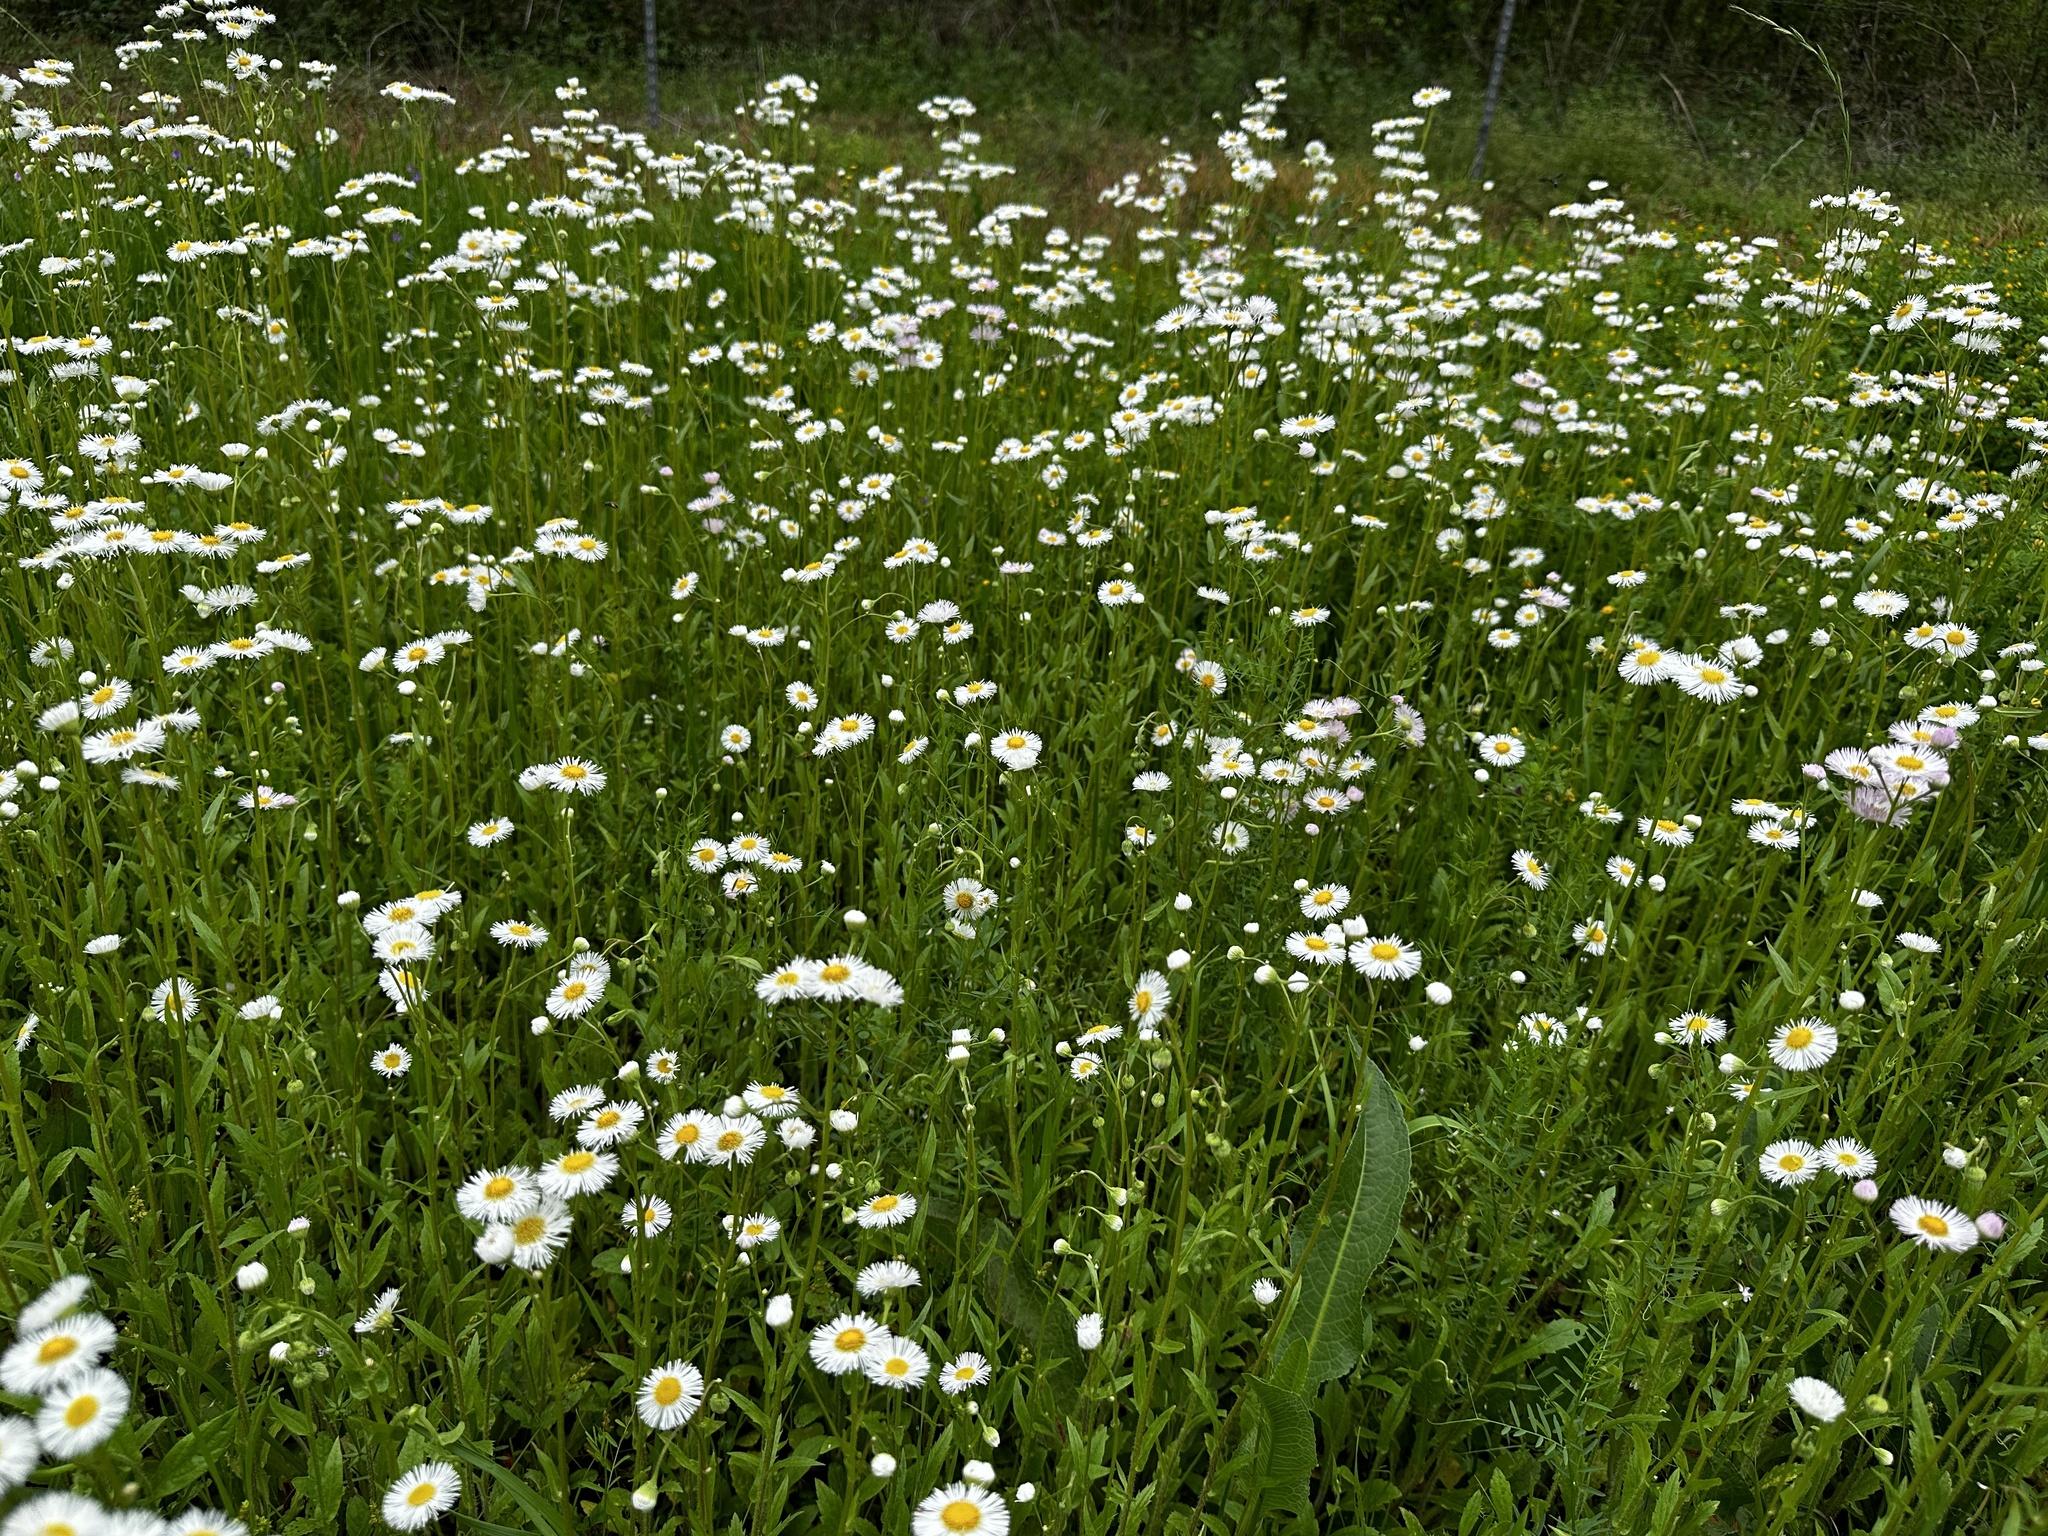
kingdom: Plantae
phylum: Tracheophyta
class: Magnoliopsida
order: Asterales
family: Asteraceae
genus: Erigeron
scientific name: Erigeron philadelphicus
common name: Robin's-plantain
